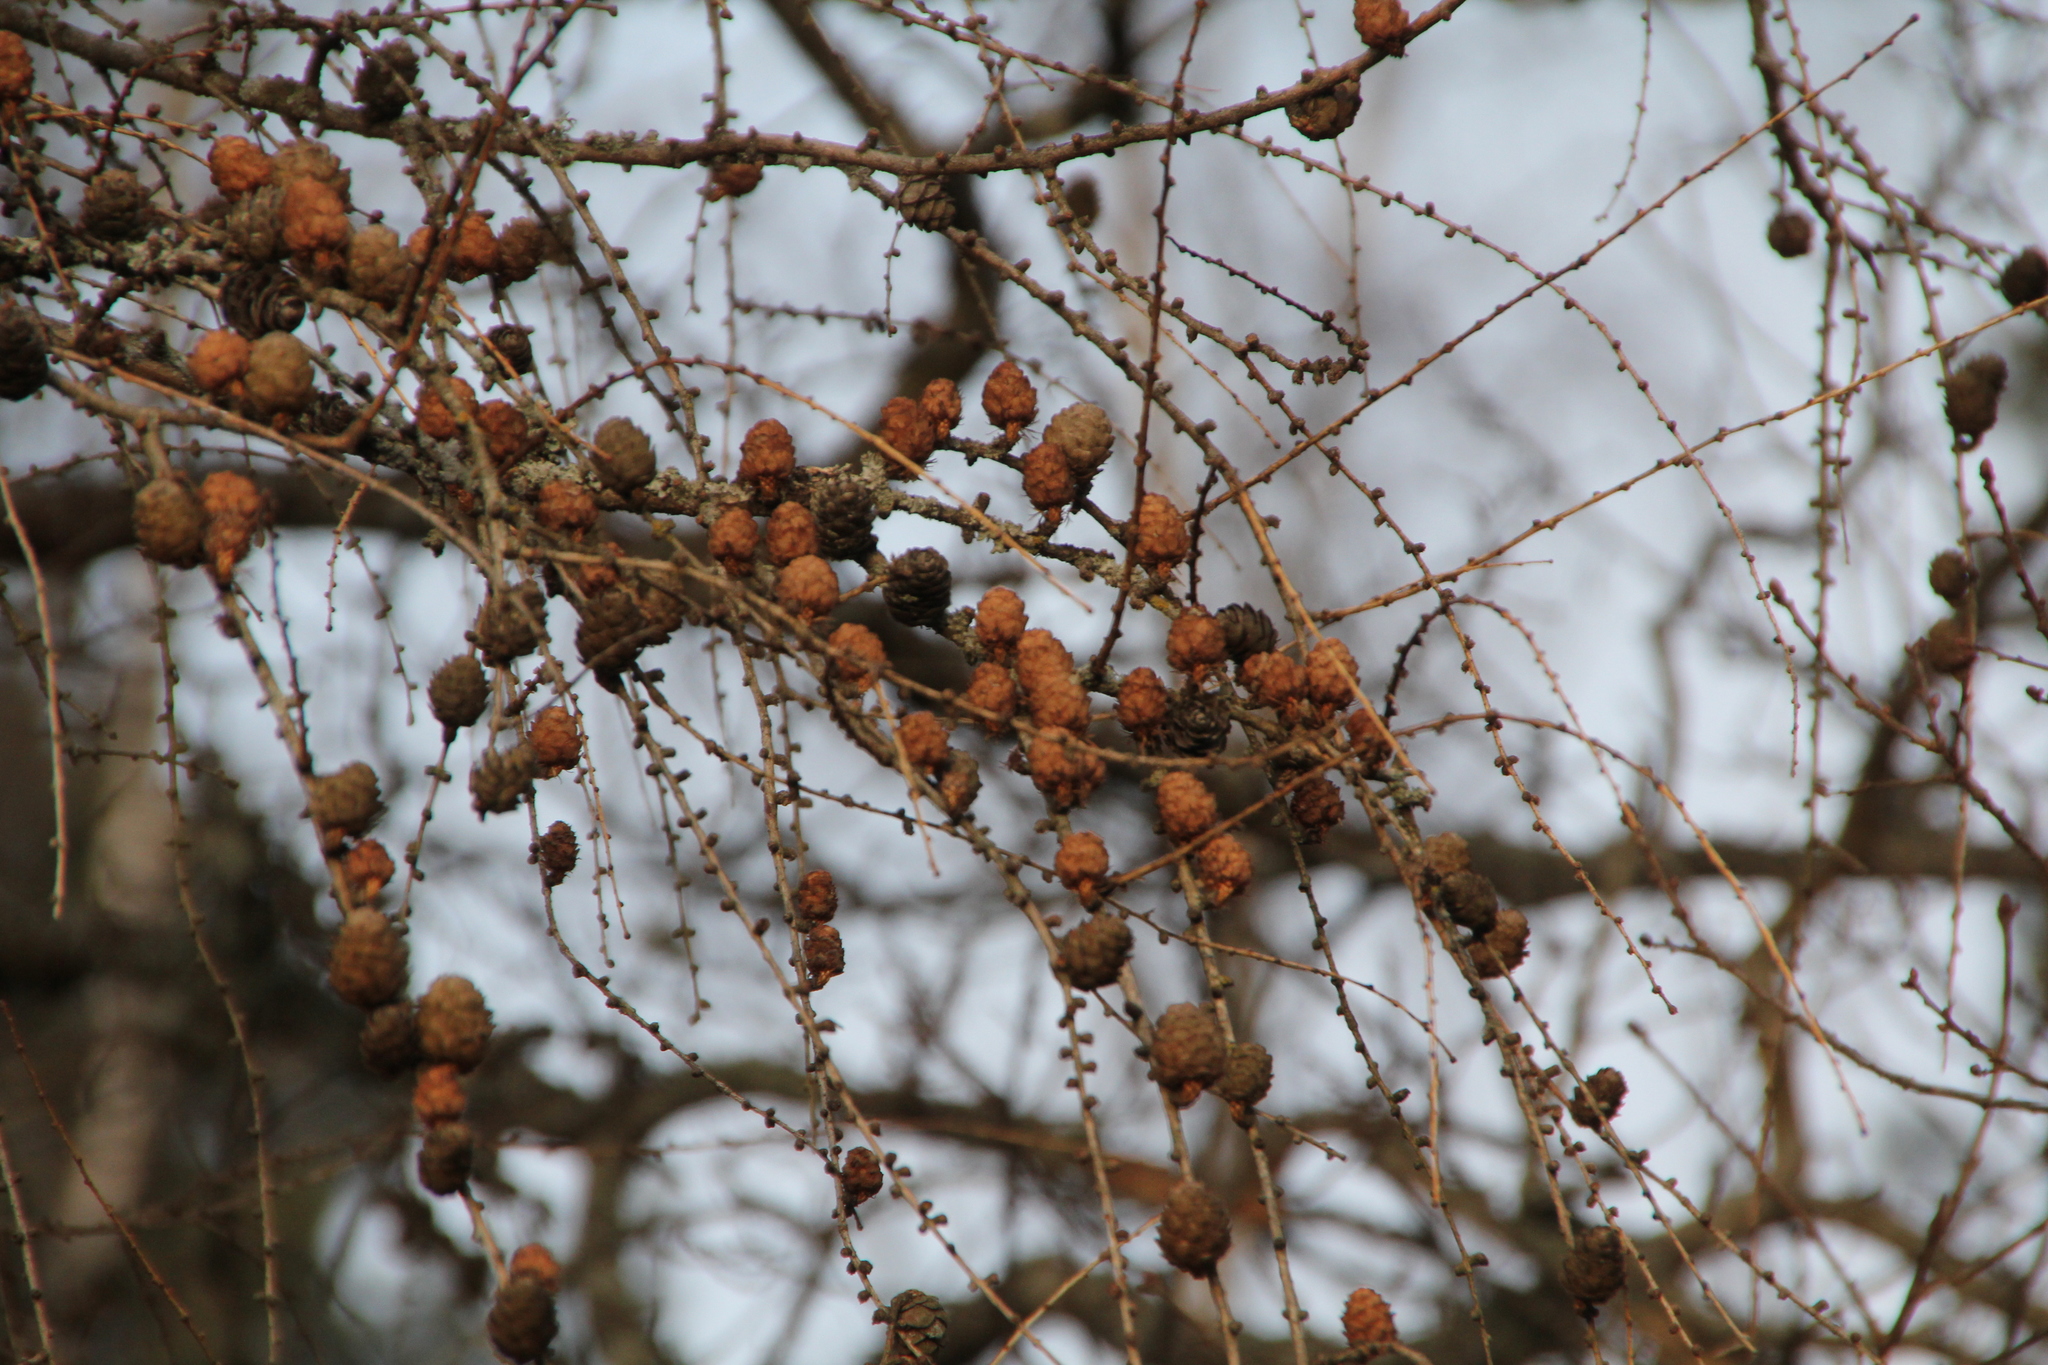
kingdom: Plantae
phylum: Tracheophyta
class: Pinopsida
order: Pinales
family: Pinaceae
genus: Larix
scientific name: Larix decidua
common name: European larch
